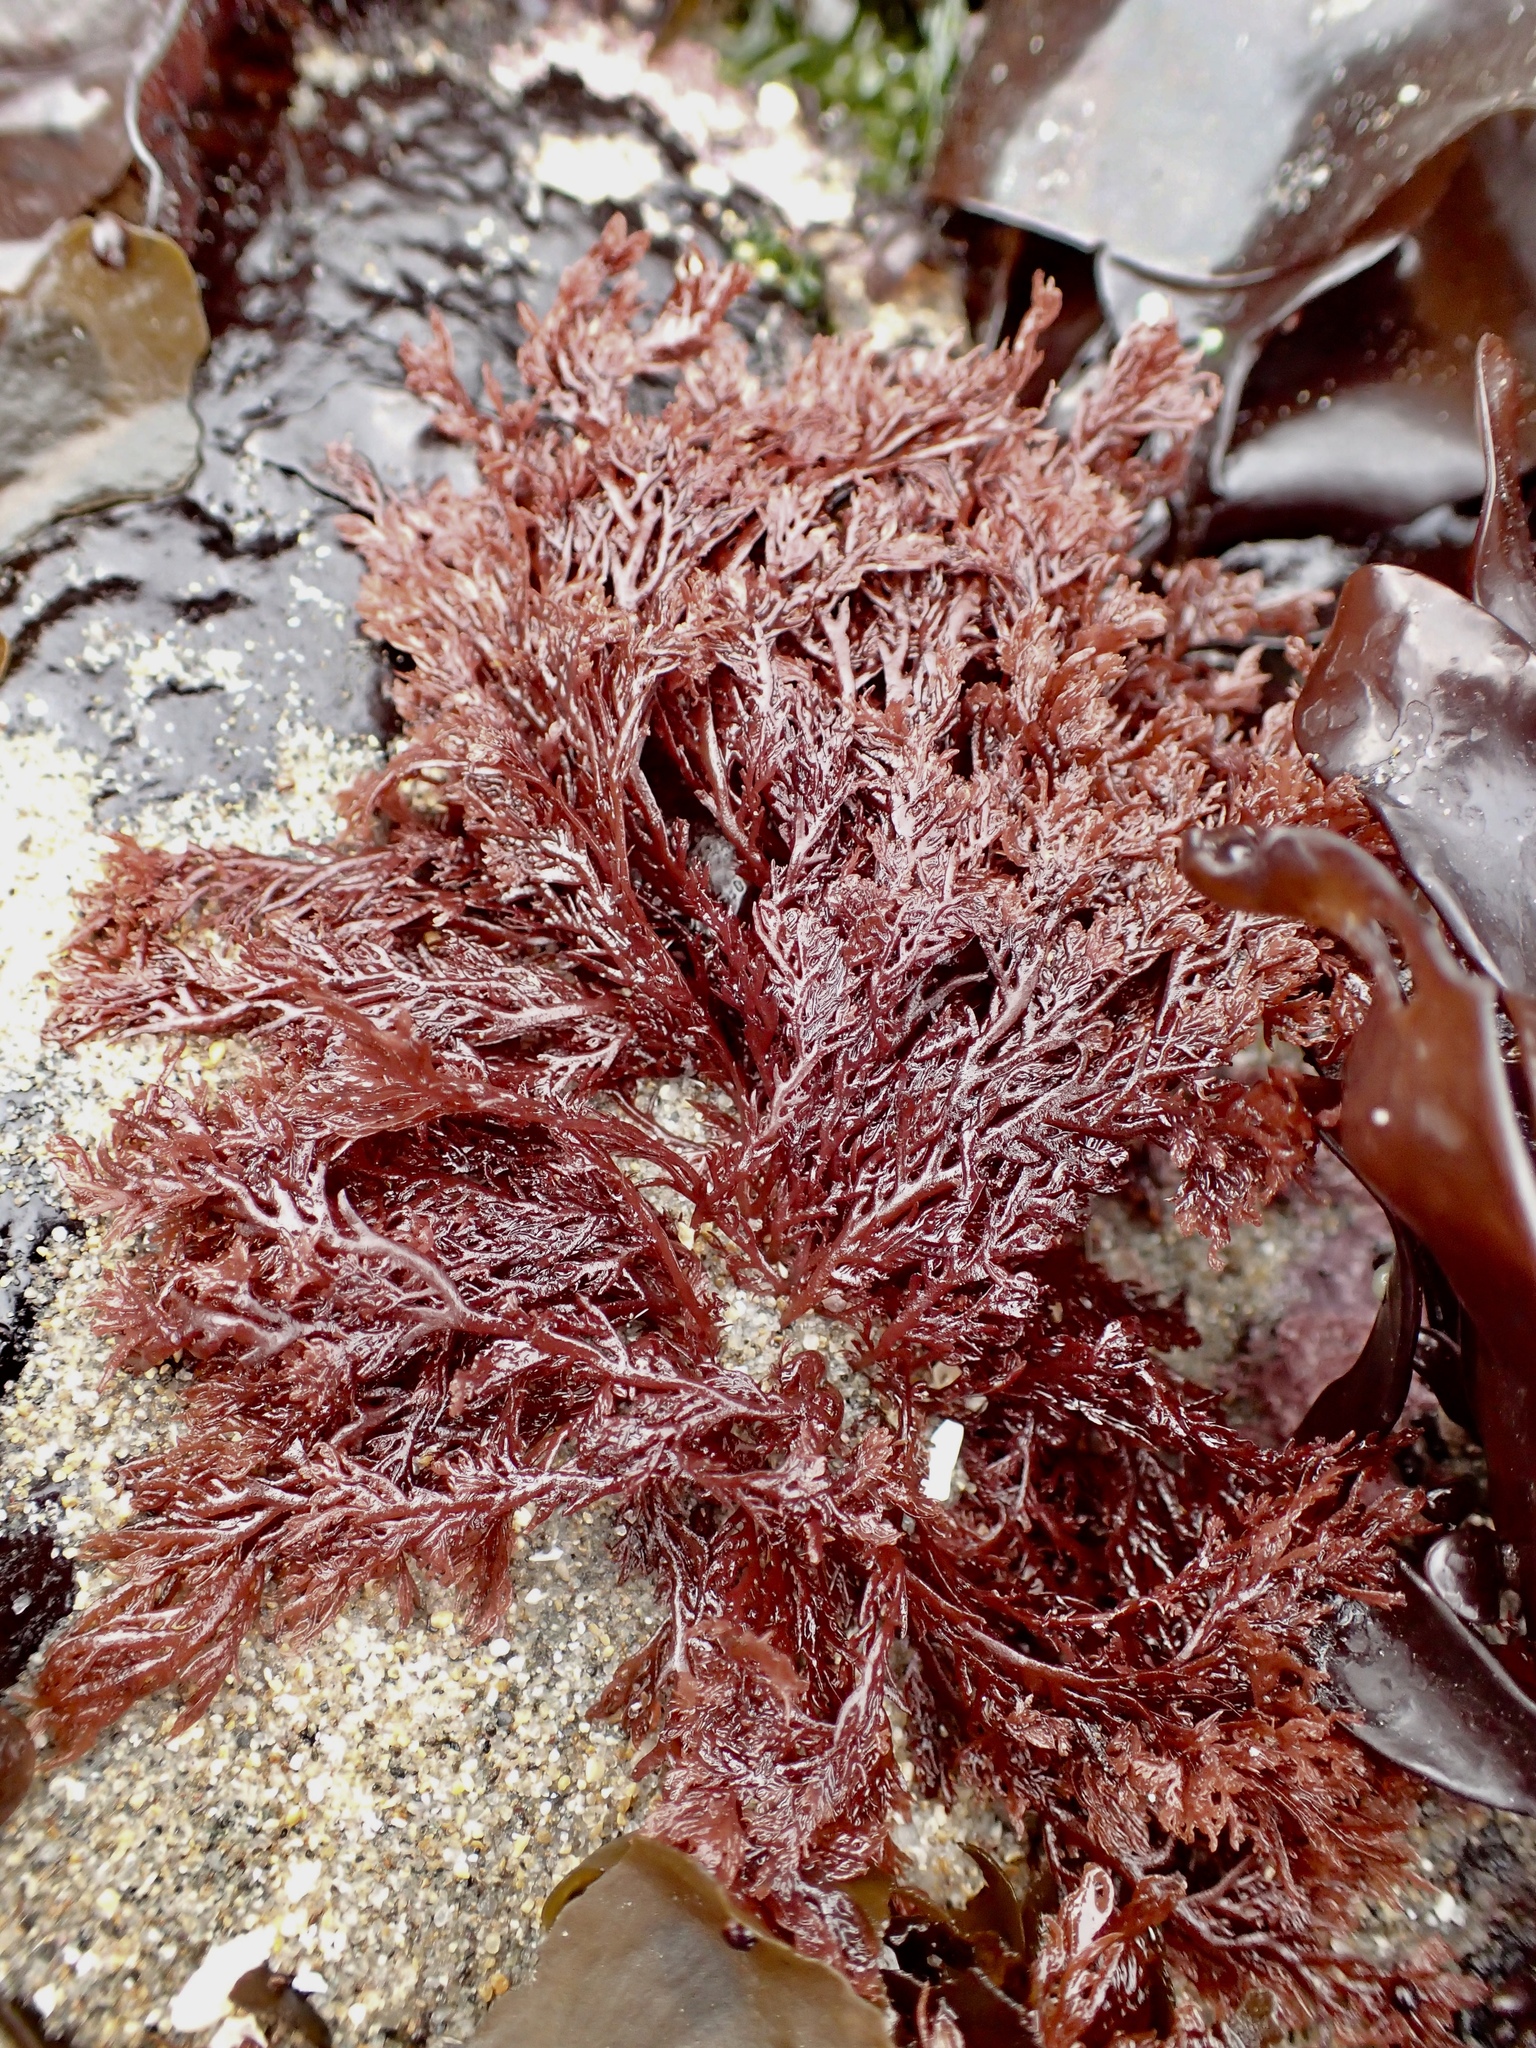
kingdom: Plantae
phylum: Rhodophyta
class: Florideophyceae
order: Plocamiales
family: Plocamiaceae
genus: Plocamium
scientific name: Plocamium cartilagineum
